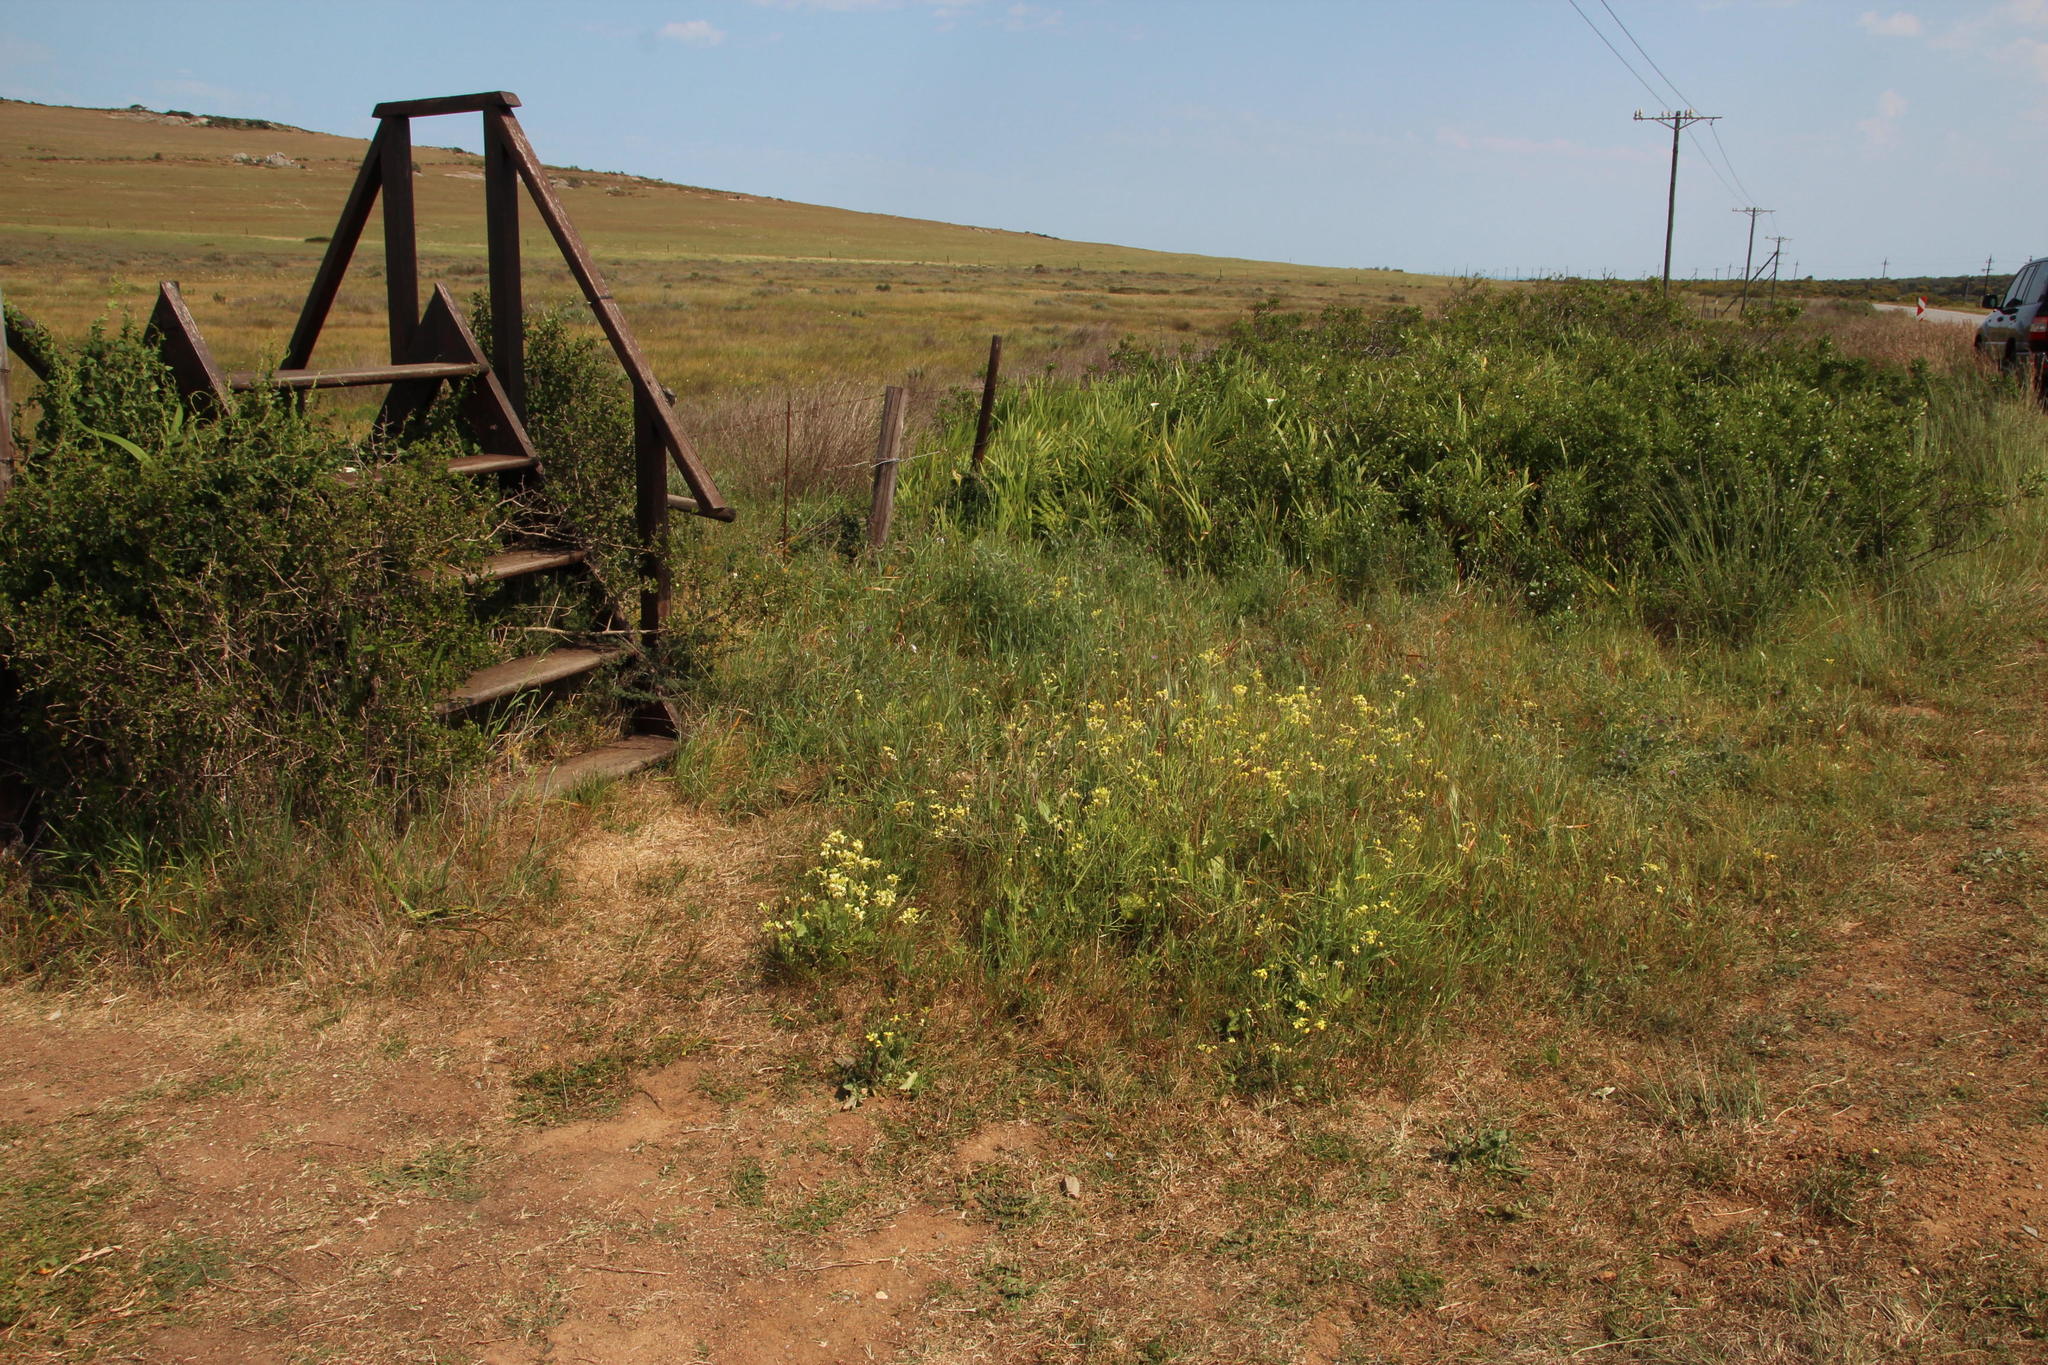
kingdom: Plantae
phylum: Tracheophyta
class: Magnoliopsida
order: Brassicales
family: Brassicaceae
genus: Raphanus
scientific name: Raphanus raphanistrum
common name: Wild radish
